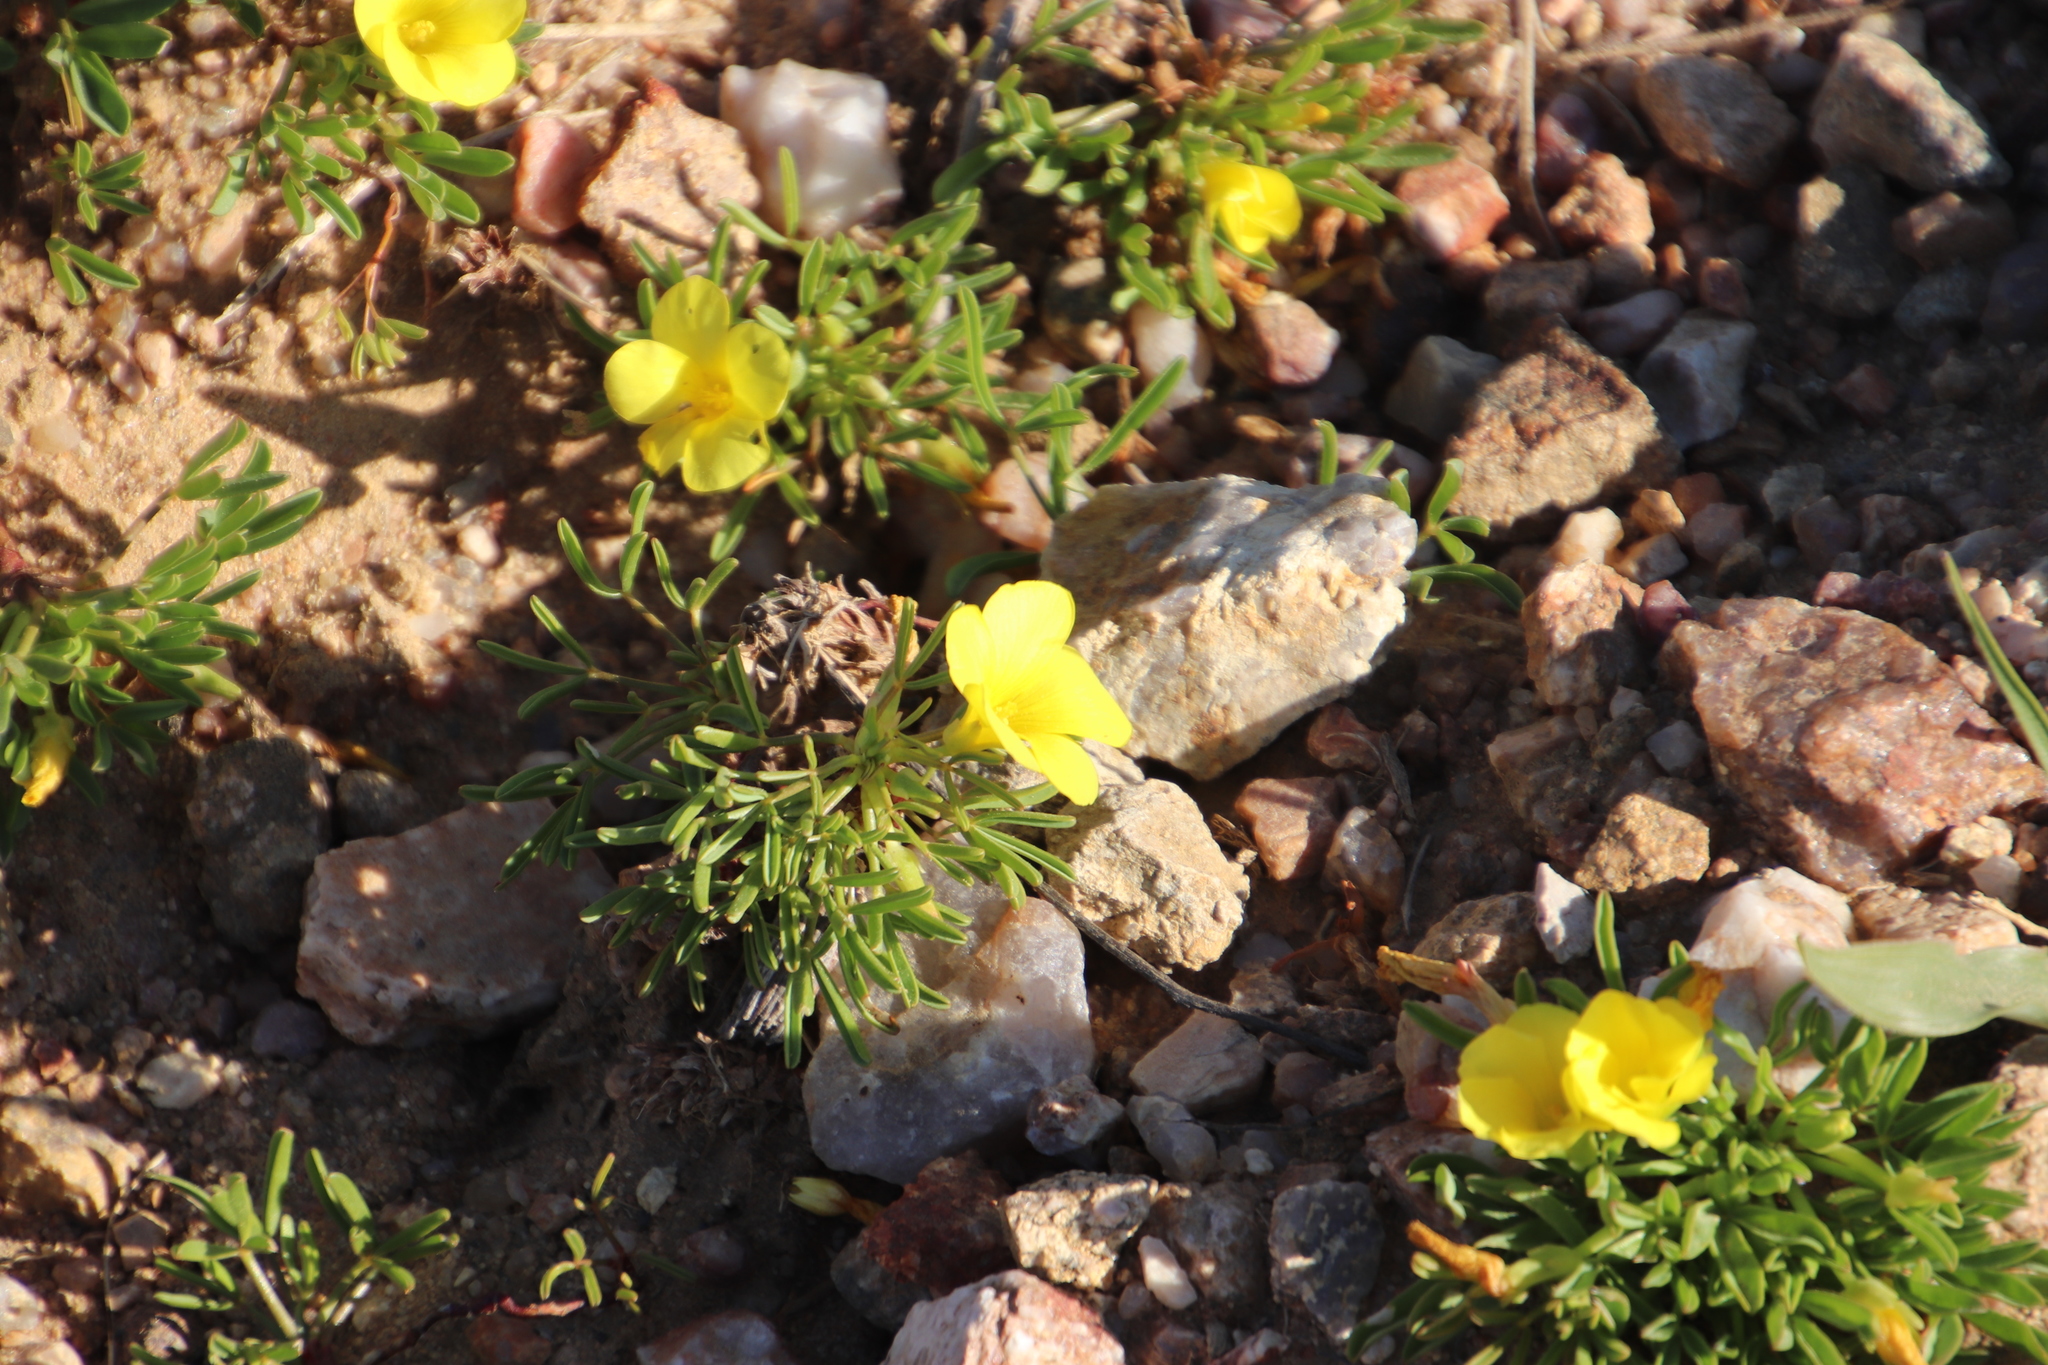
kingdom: Plantae
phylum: Tracheophyta
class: Magnoliopsida
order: Oxalidales
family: Oxalidaceae
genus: Oxalis
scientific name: Oxalis namaquana
